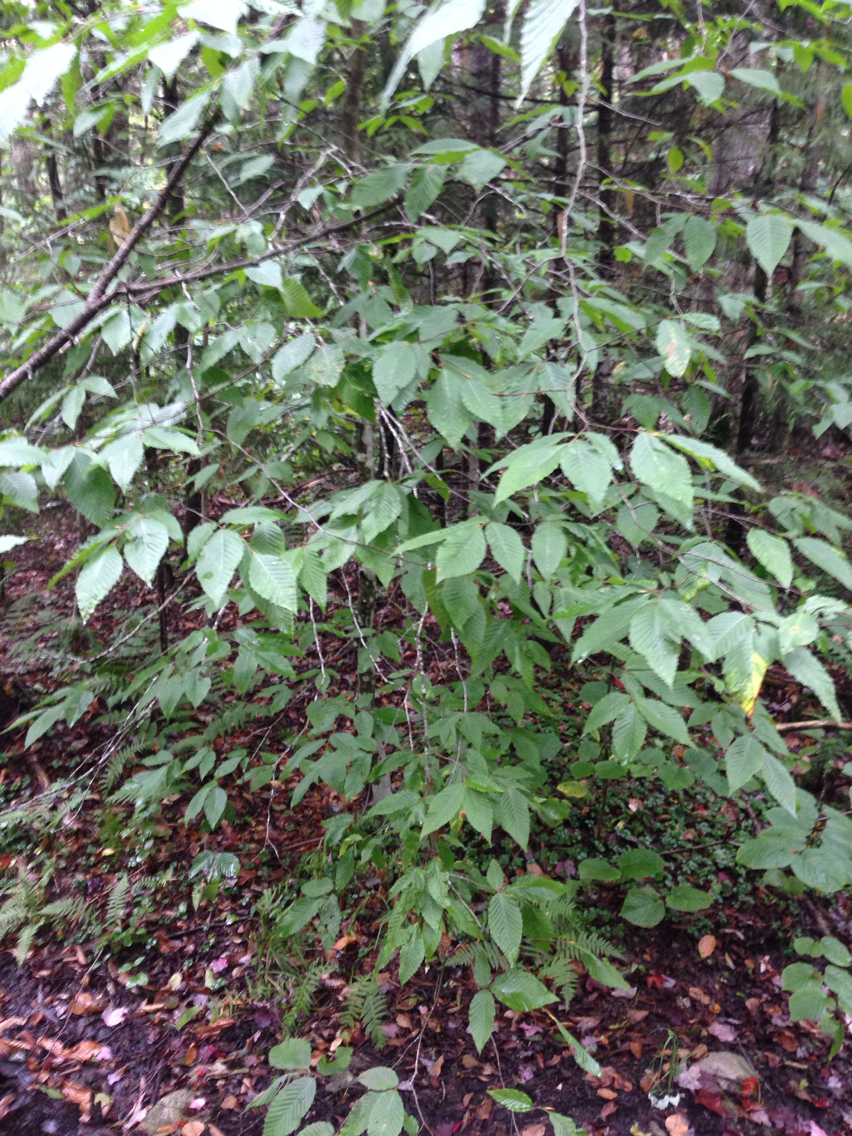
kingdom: Plantae
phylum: Tracheophyta
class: Magnoliopsida
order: Fagales
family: Fagaceae
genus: Fagus
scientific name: Fagus grandifolia
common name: American beech
